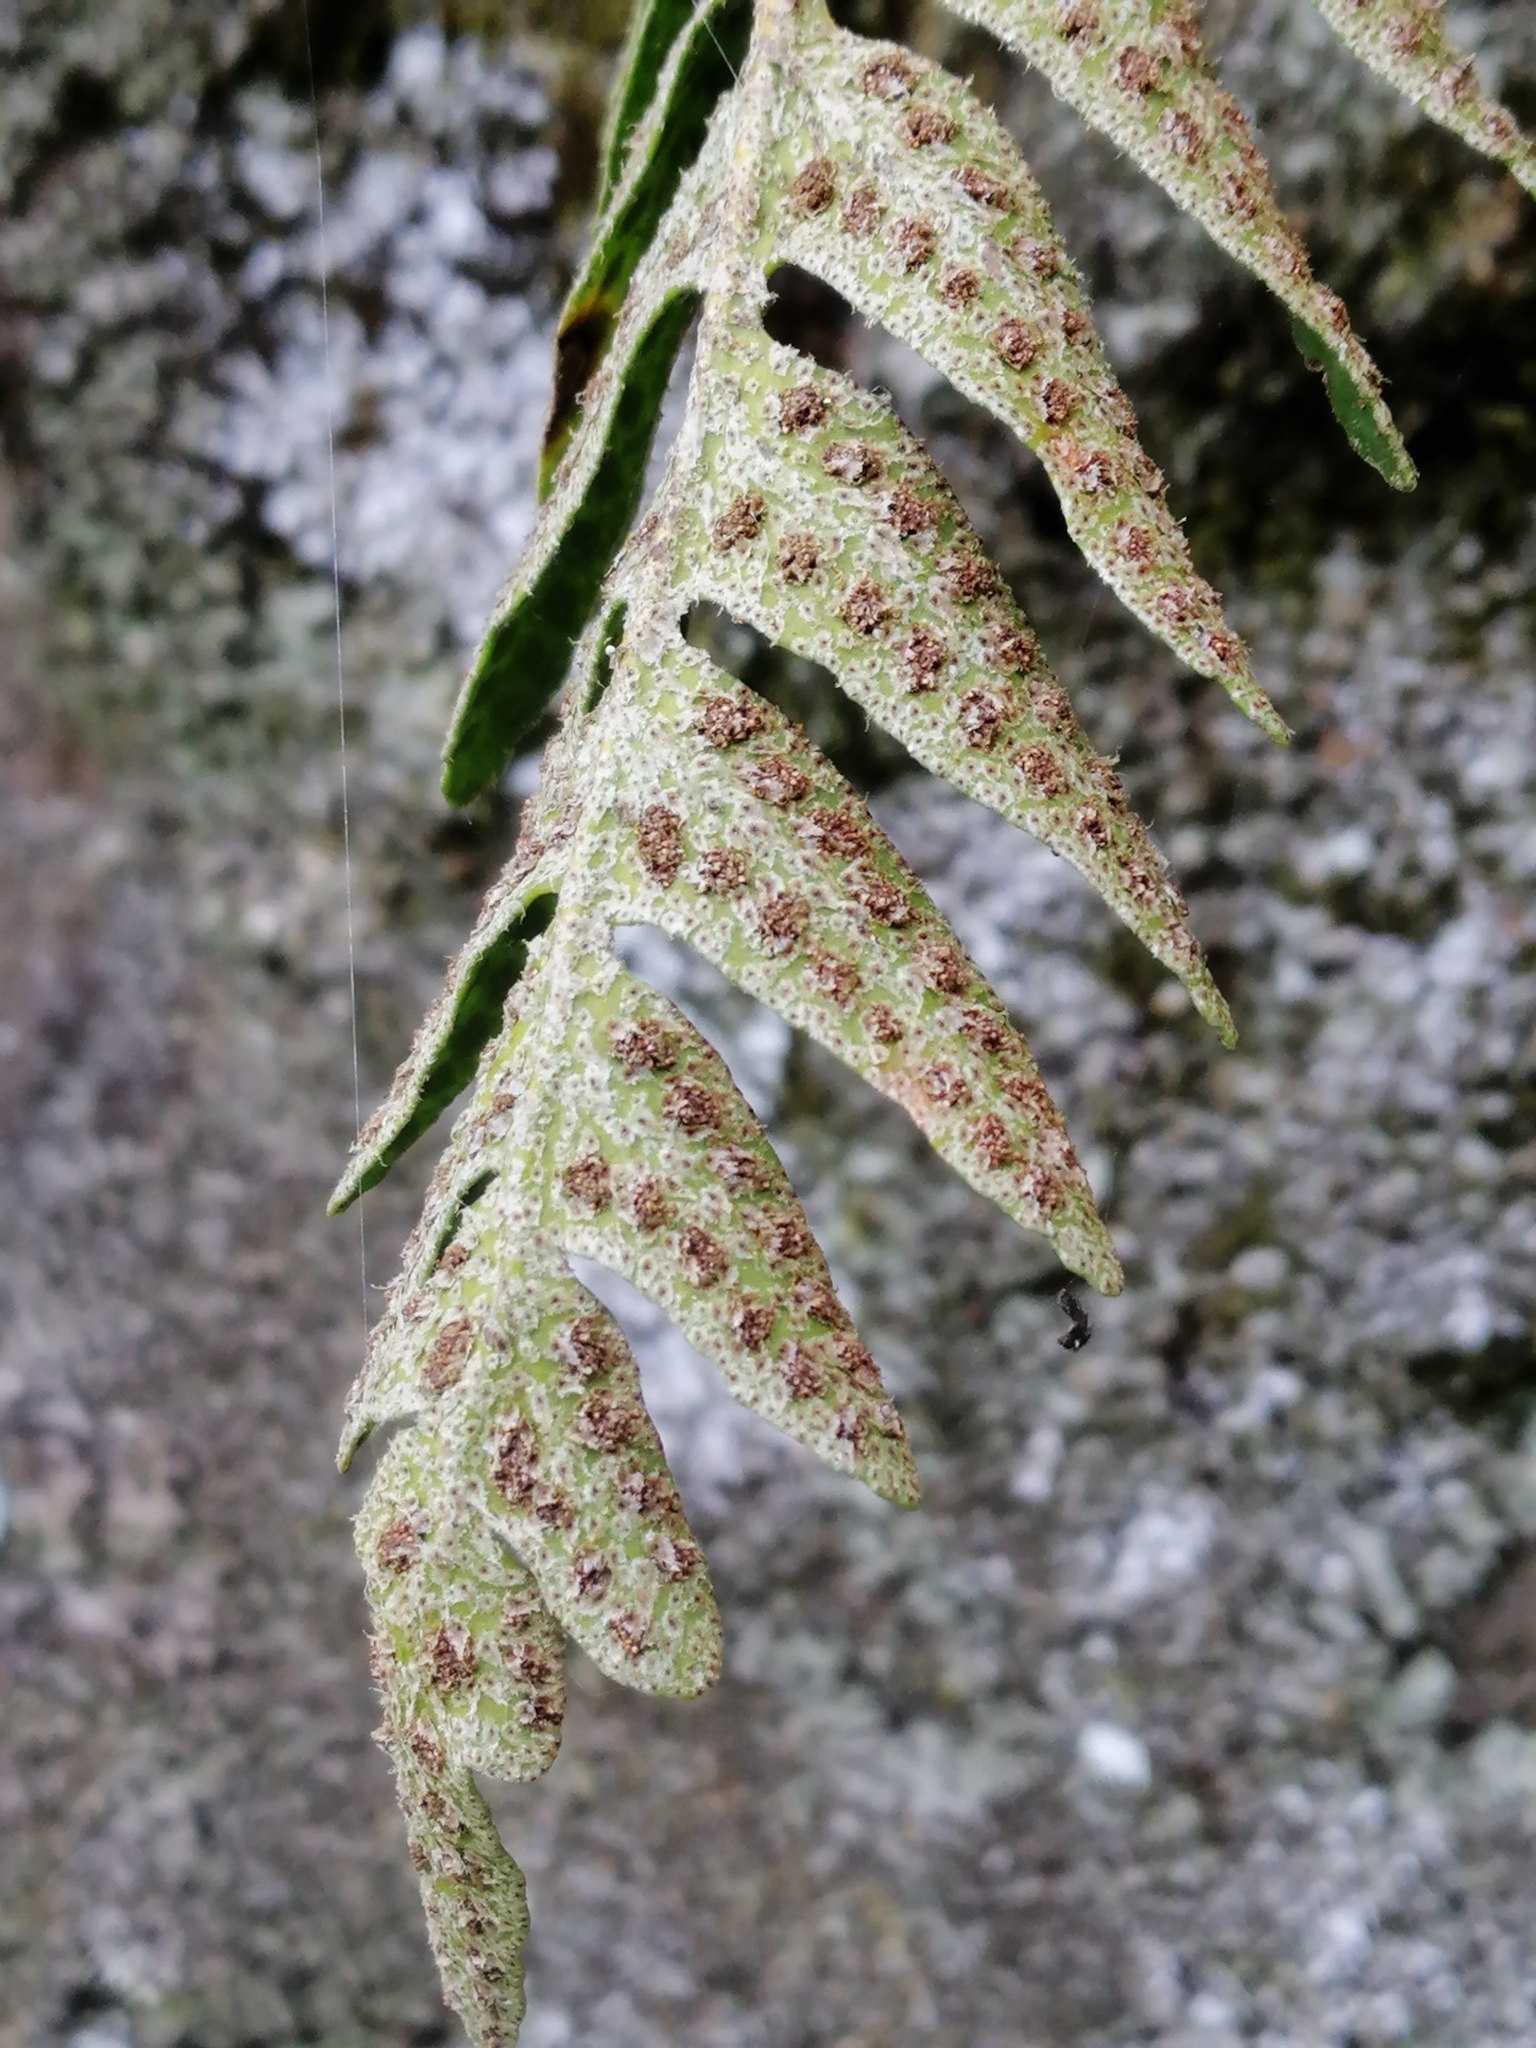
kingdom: Plantae
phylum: Tracheophyta
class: Polypodiopsida
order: Polypodiales
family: Polypodiaceae
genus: Pleopeltis
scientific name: Pleopeltis thyssanolepis
